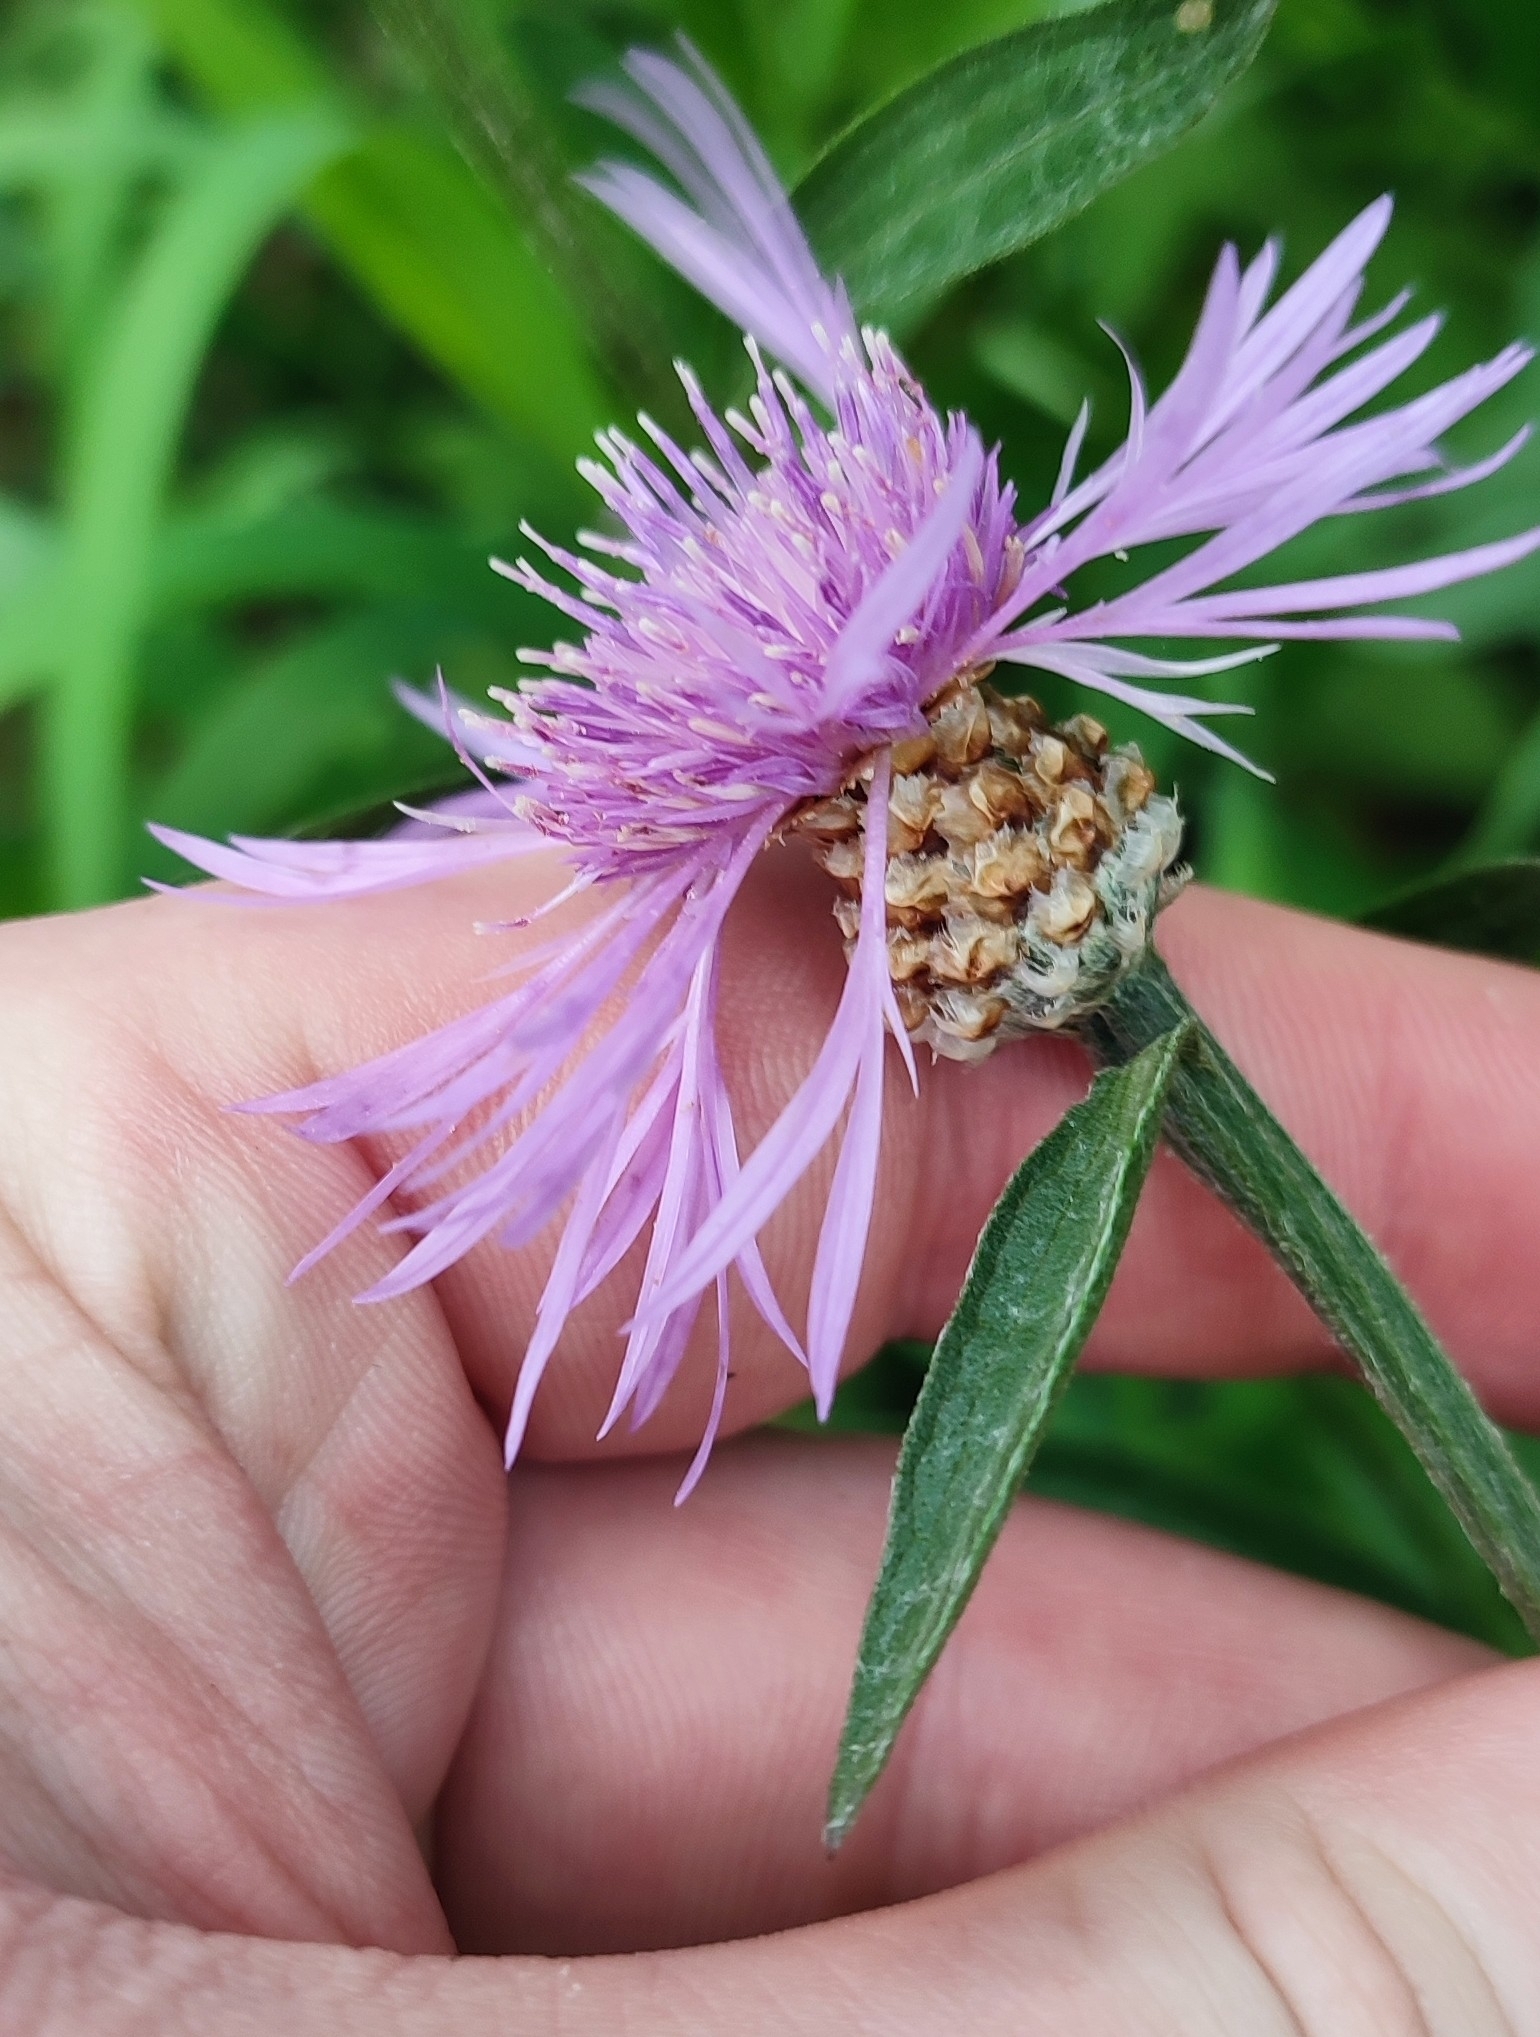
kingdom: Plantae
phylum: Tracheophyta
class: Magnoliopsida
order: Asterales
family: Asteraceae
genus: Centaurea
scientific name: Centaurea jacea
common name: Brown knapweed
